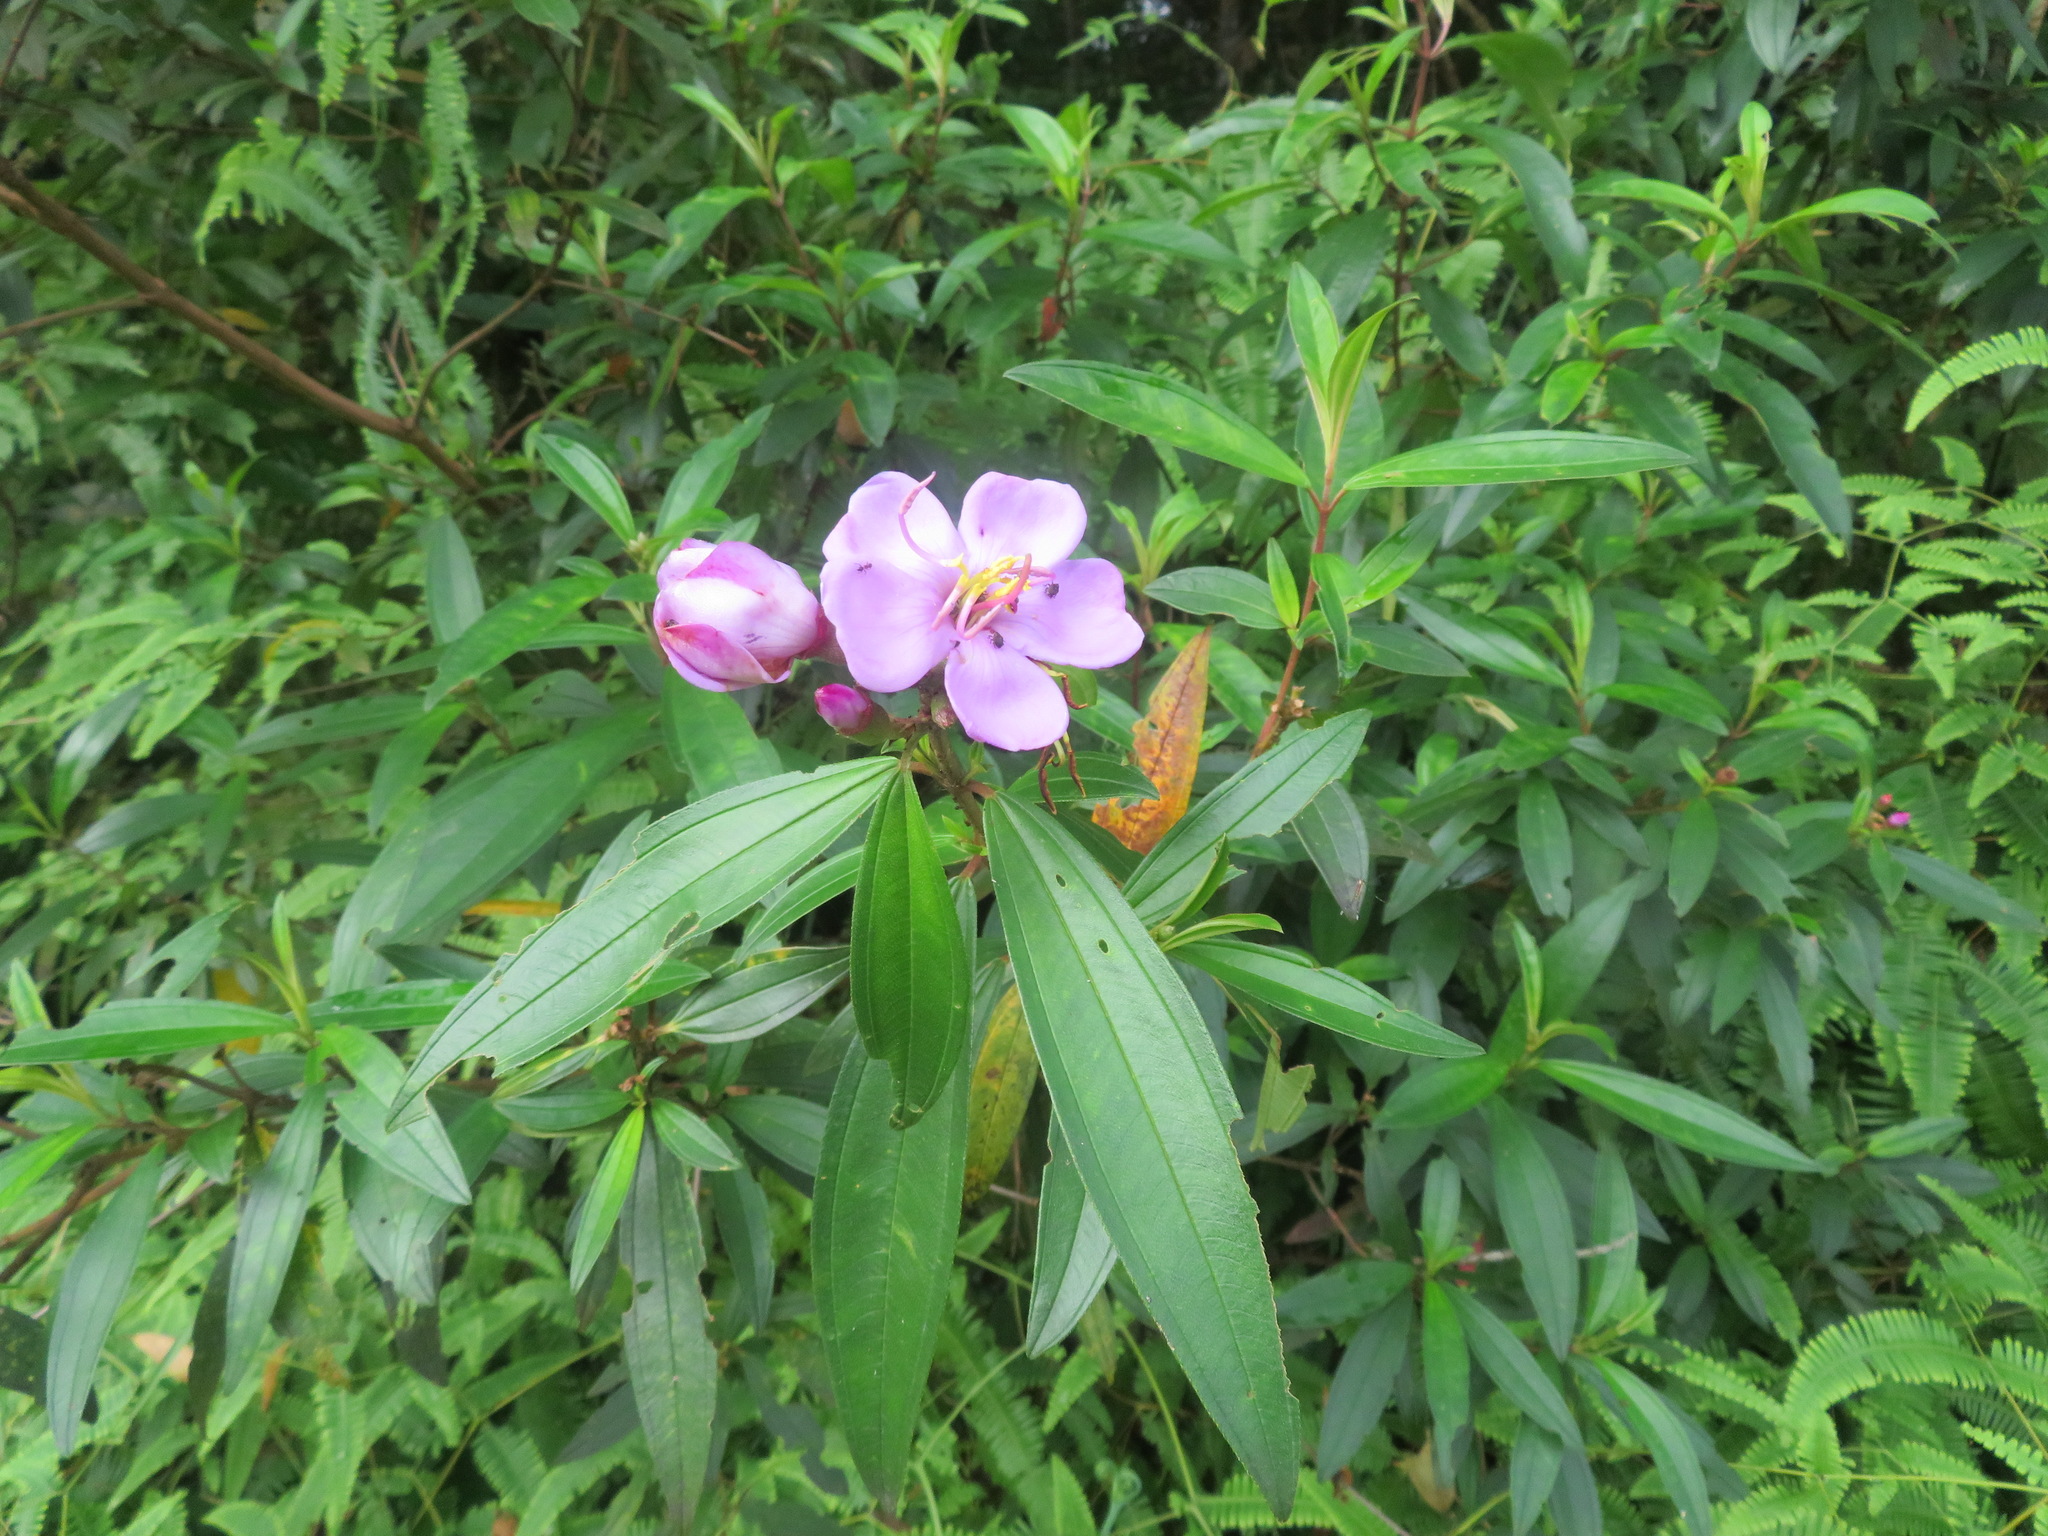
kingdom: Plantae
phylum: Tracheophyta
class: Magnoliopsida
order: Myrtales
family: Melastomataceae
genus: Melastoma
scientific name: Melastoma malabathricum
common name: Indian-rhododendron
